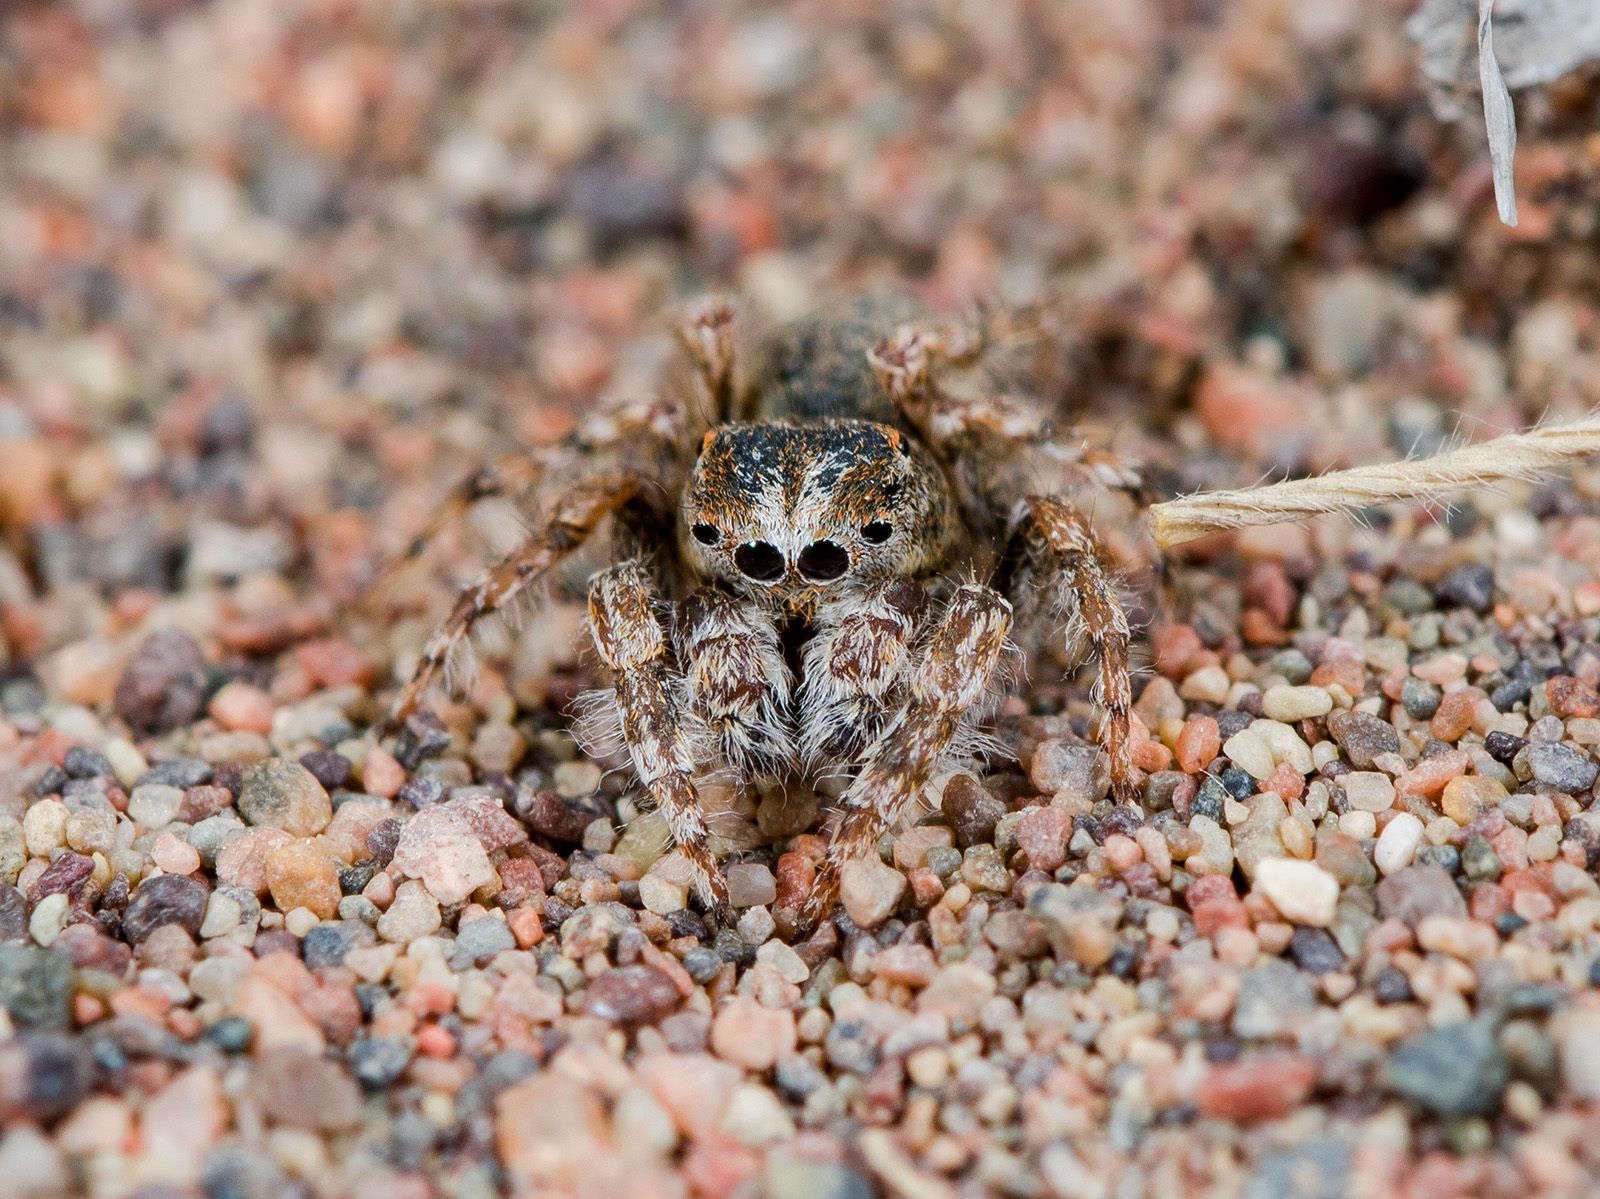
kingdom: Animalia
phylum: Arthropoda
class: Arachnida
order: Araneae
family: Salticidae
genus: Yllenus
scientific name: Yllenus uiguricus
